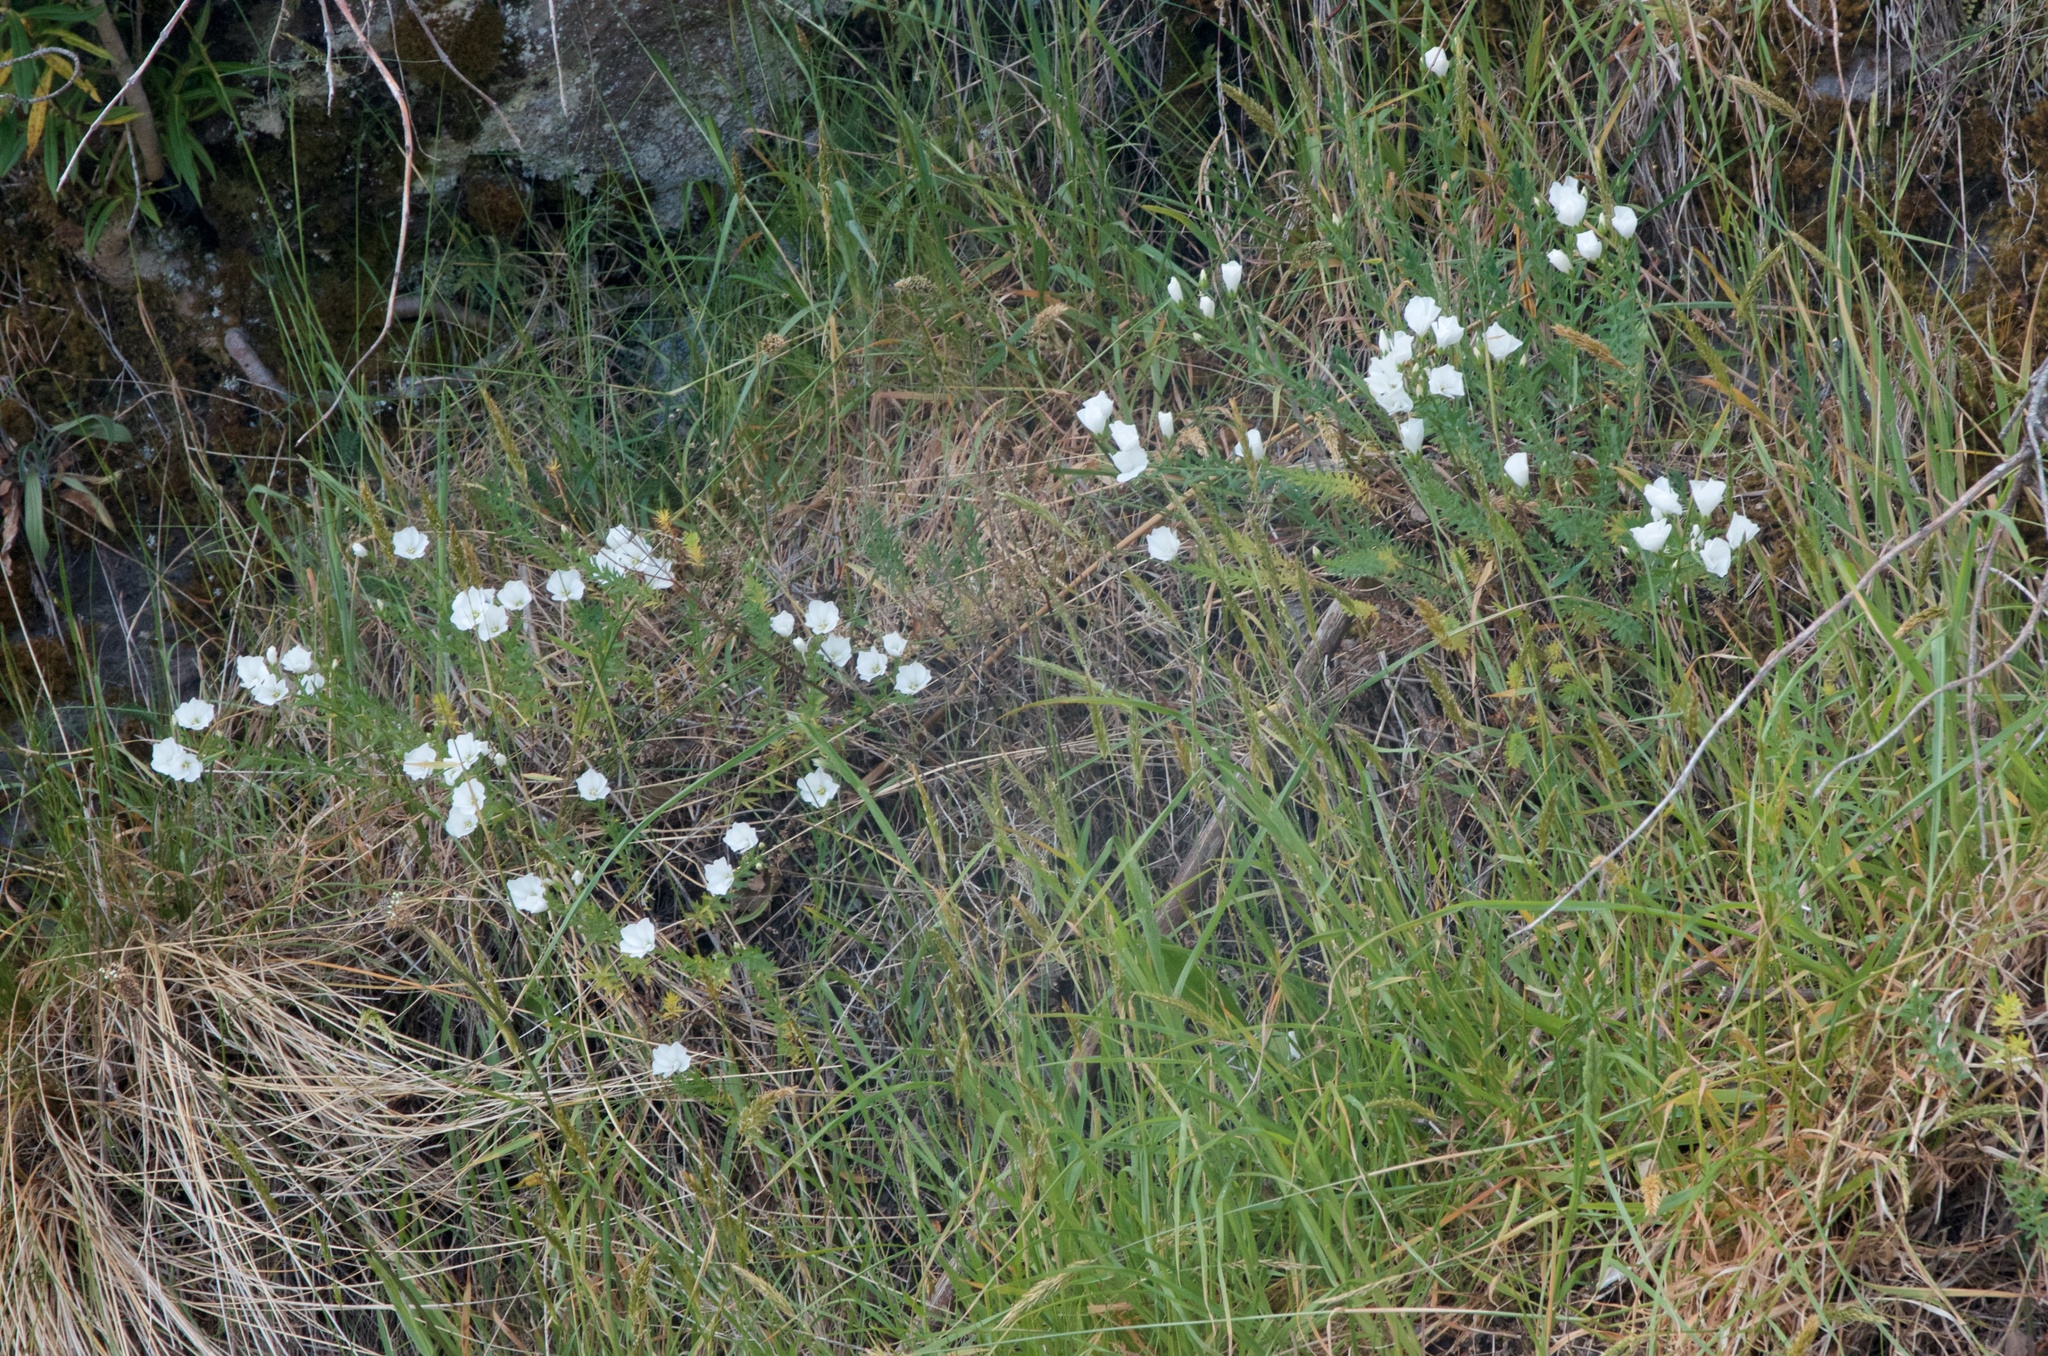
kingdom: Plantae
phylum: Tracheophyta
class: Magnoliopsida
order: Malpighiales
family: Linaceae
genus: Linum
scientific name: Linum monogynum
